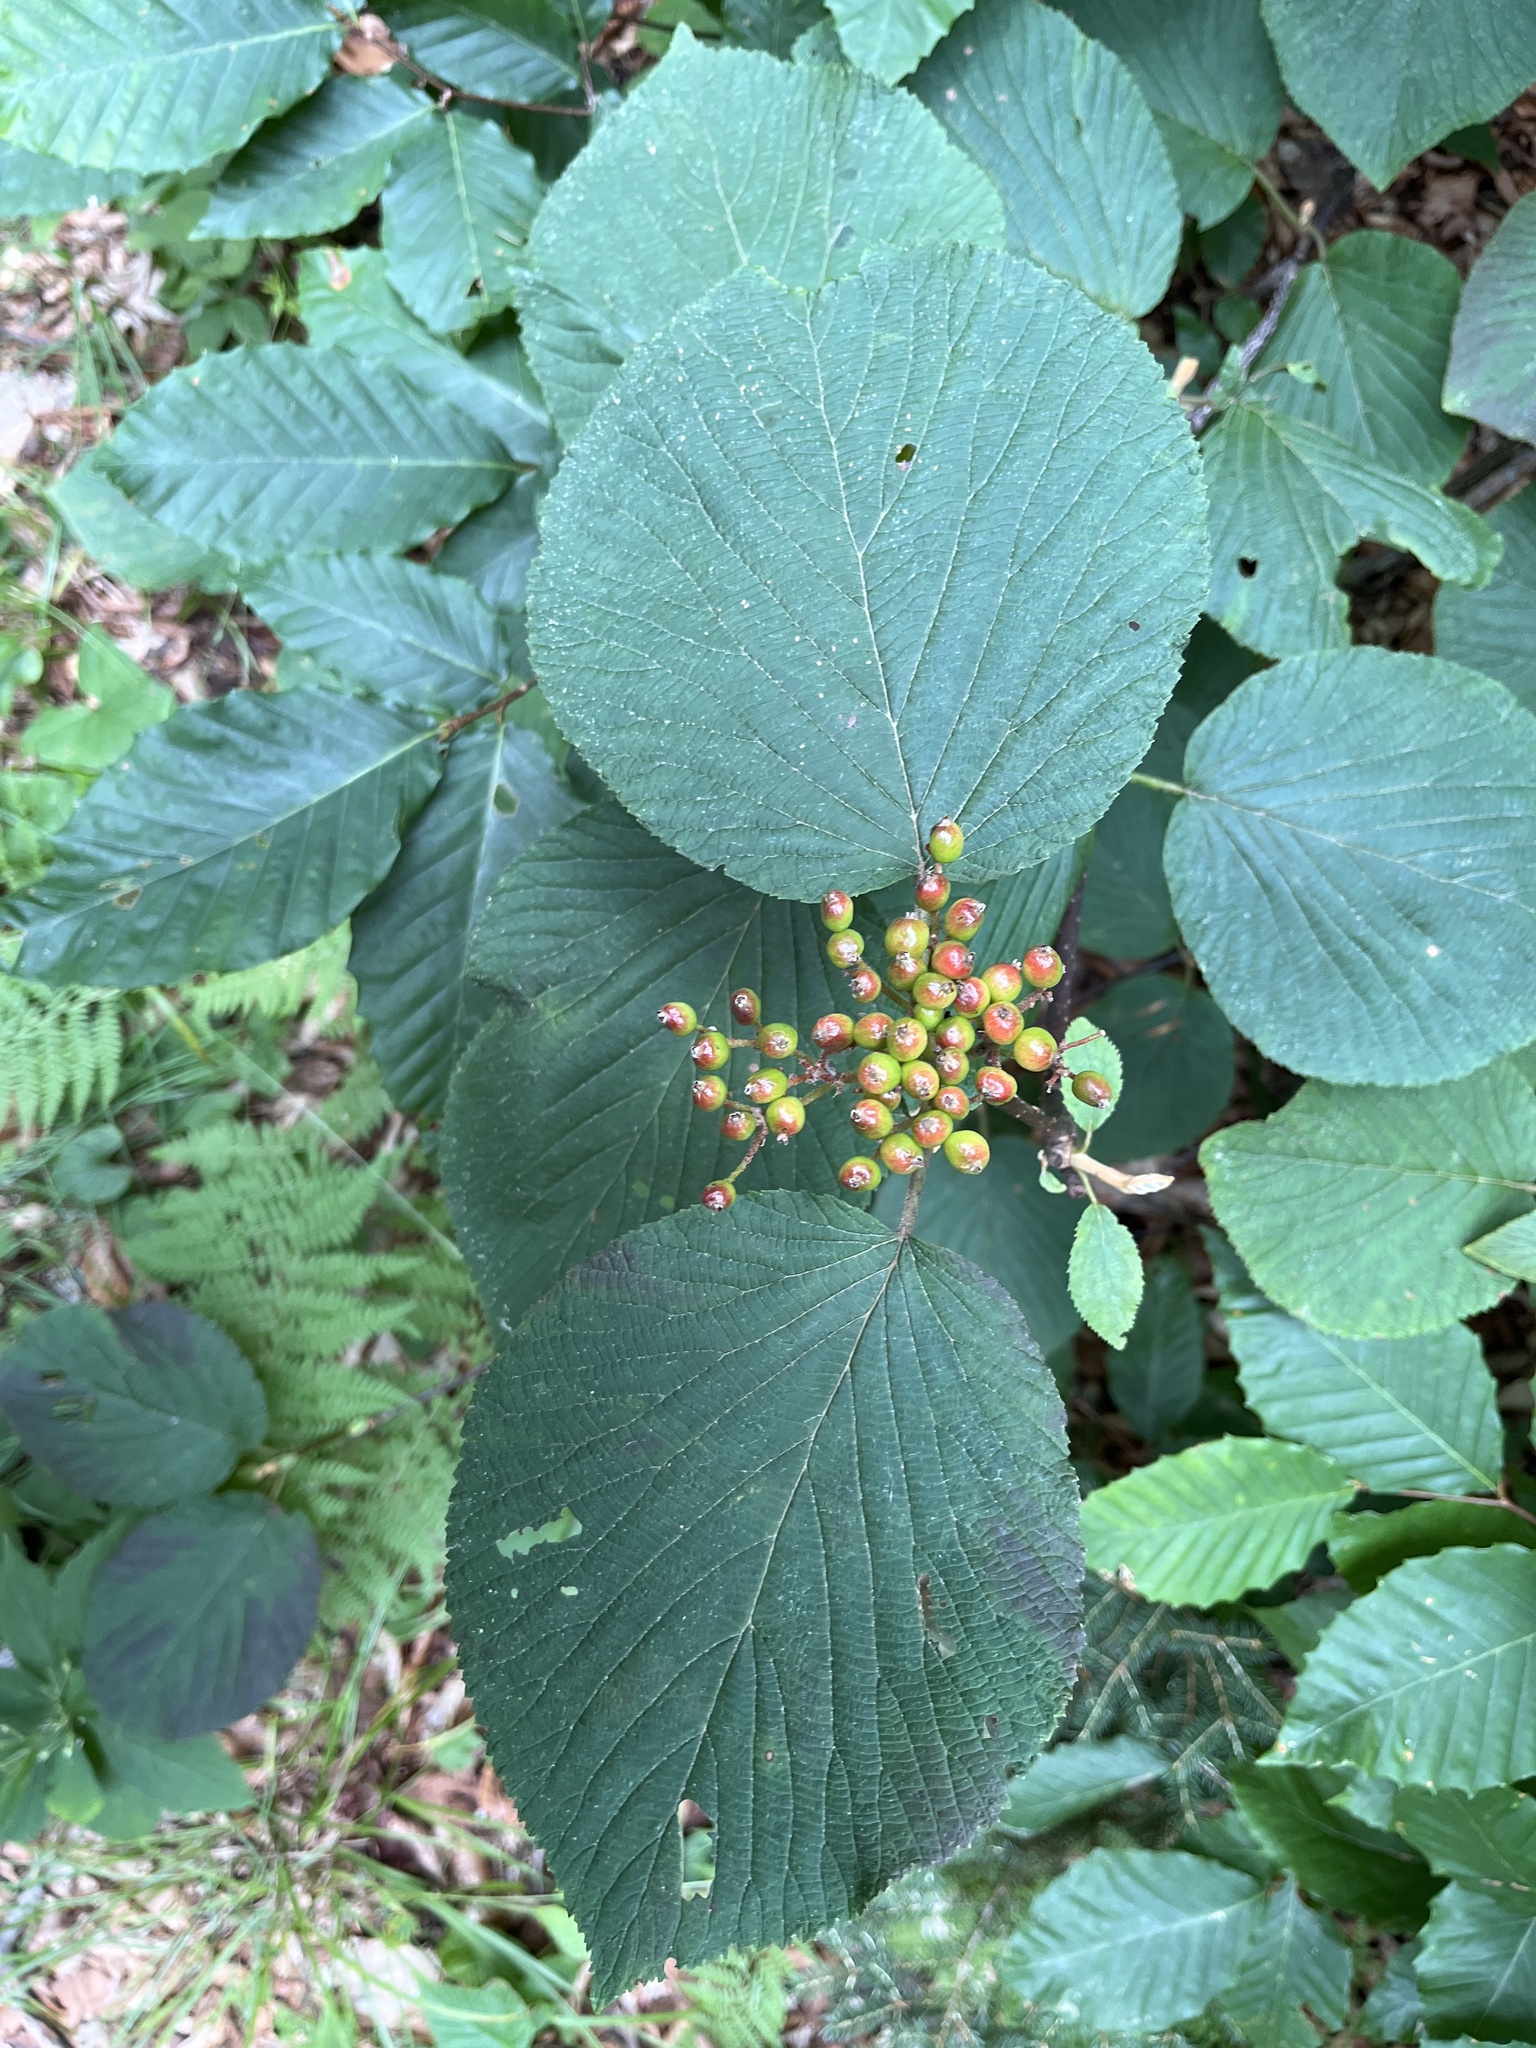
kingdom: Plantae
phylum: Tracheophyta
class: Magnoliopsida
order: Dipsacales
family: Viburnaceae
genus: Viburnum
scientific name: Viburnum lantanoides
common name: Hobblebush
